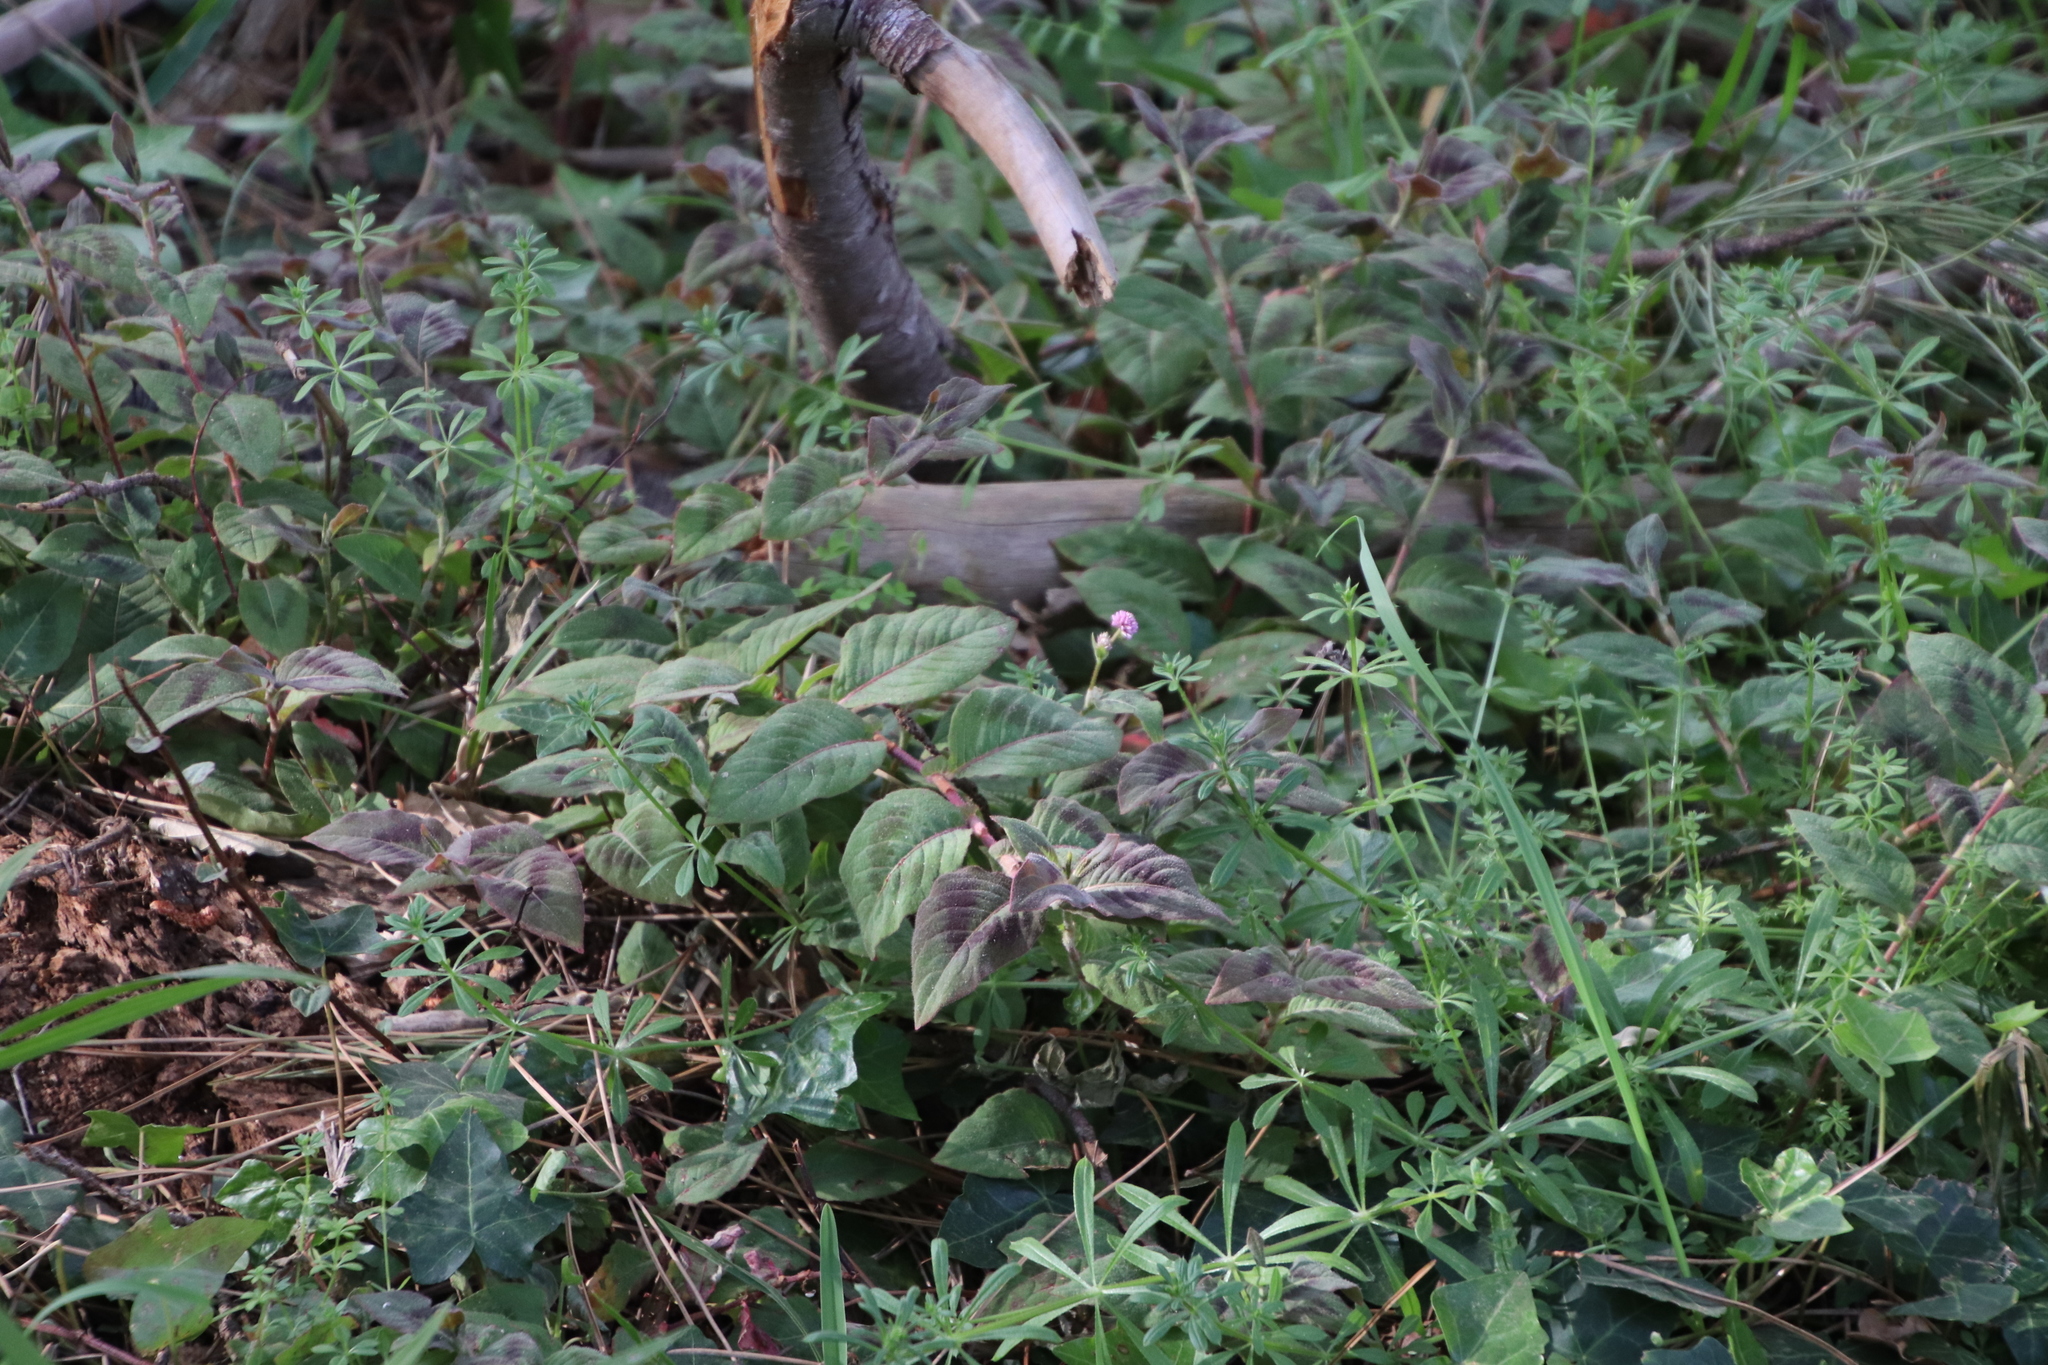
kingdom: Plantae
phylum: Tracheophyta
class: Magnoliopsida
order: Caryophyllales
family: Polygonaceae
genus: Persicaria
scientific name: Persicaria capitata
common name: Pinkhead smartweed
